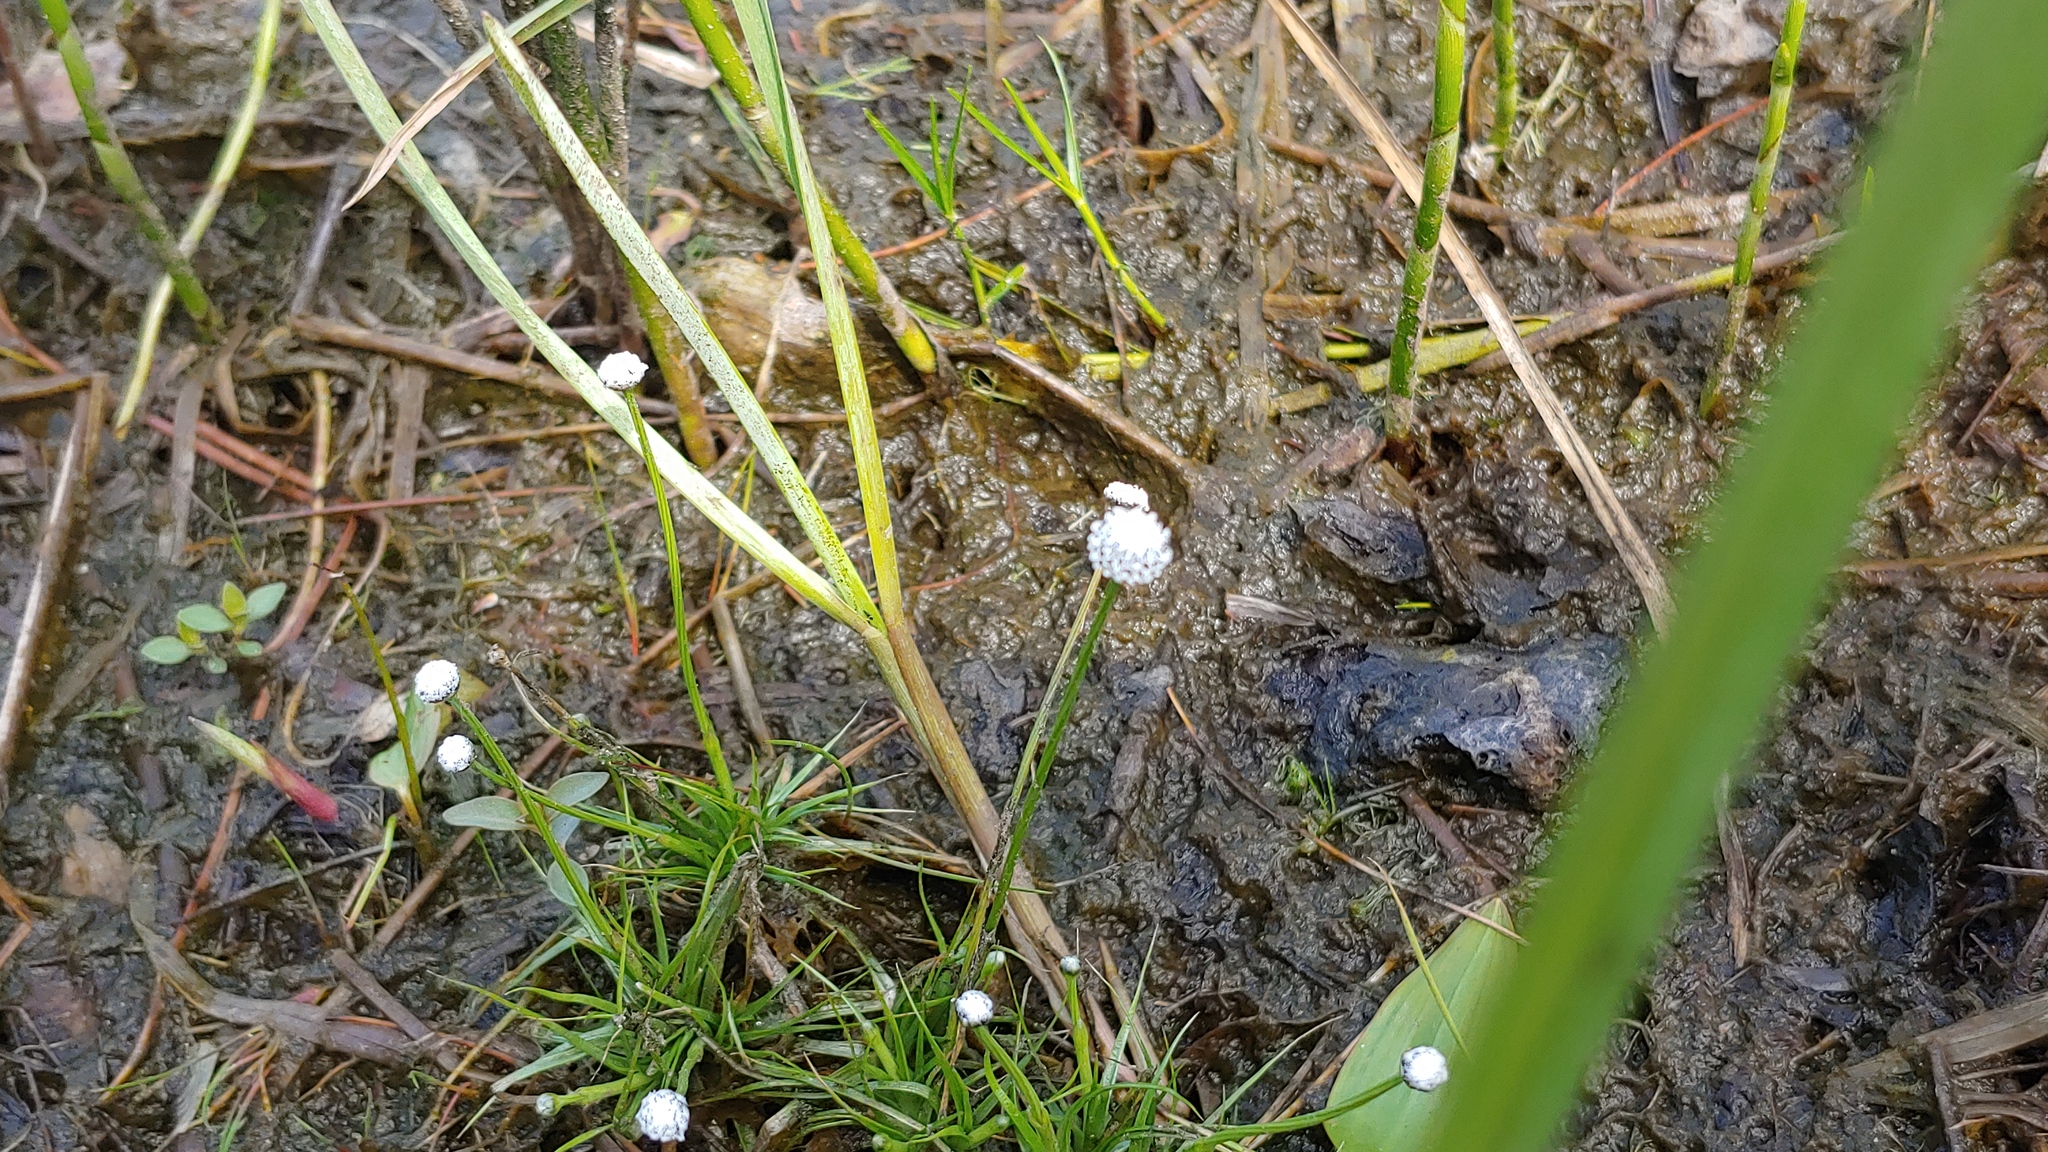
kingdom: Plantae
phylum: Tracheophyta
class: Liliopsida
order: Poales
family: Eriocaulaceae
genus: Eriocaulon
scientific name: Eriocaulon aquaticum
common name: Pipewort
